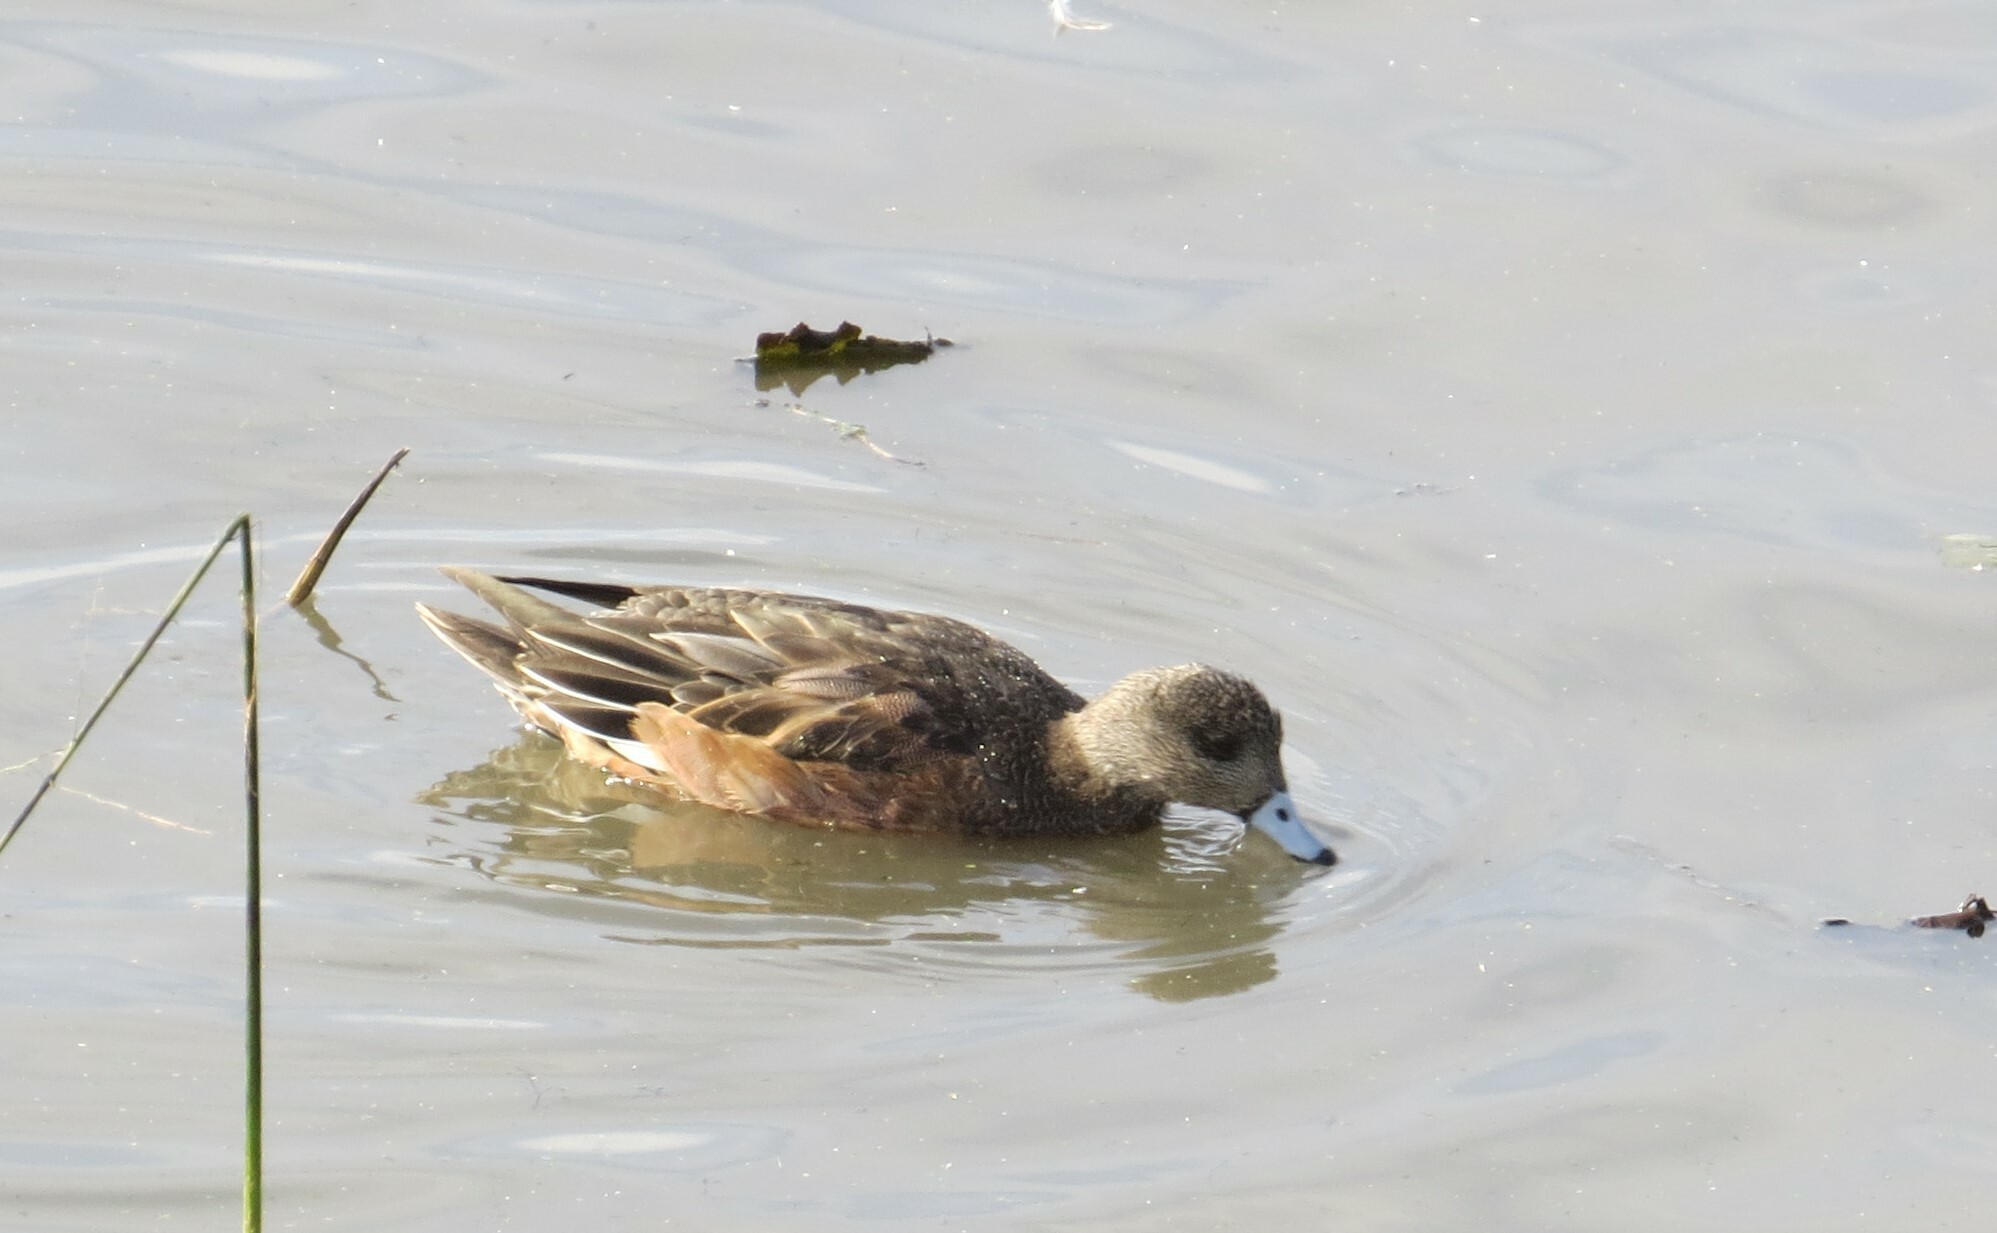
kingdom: Animalia
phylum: Chordata
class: Aves
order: Anseriformes
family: Anatidae
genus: Mareca
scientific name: Mareca americana
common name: American wigeon
